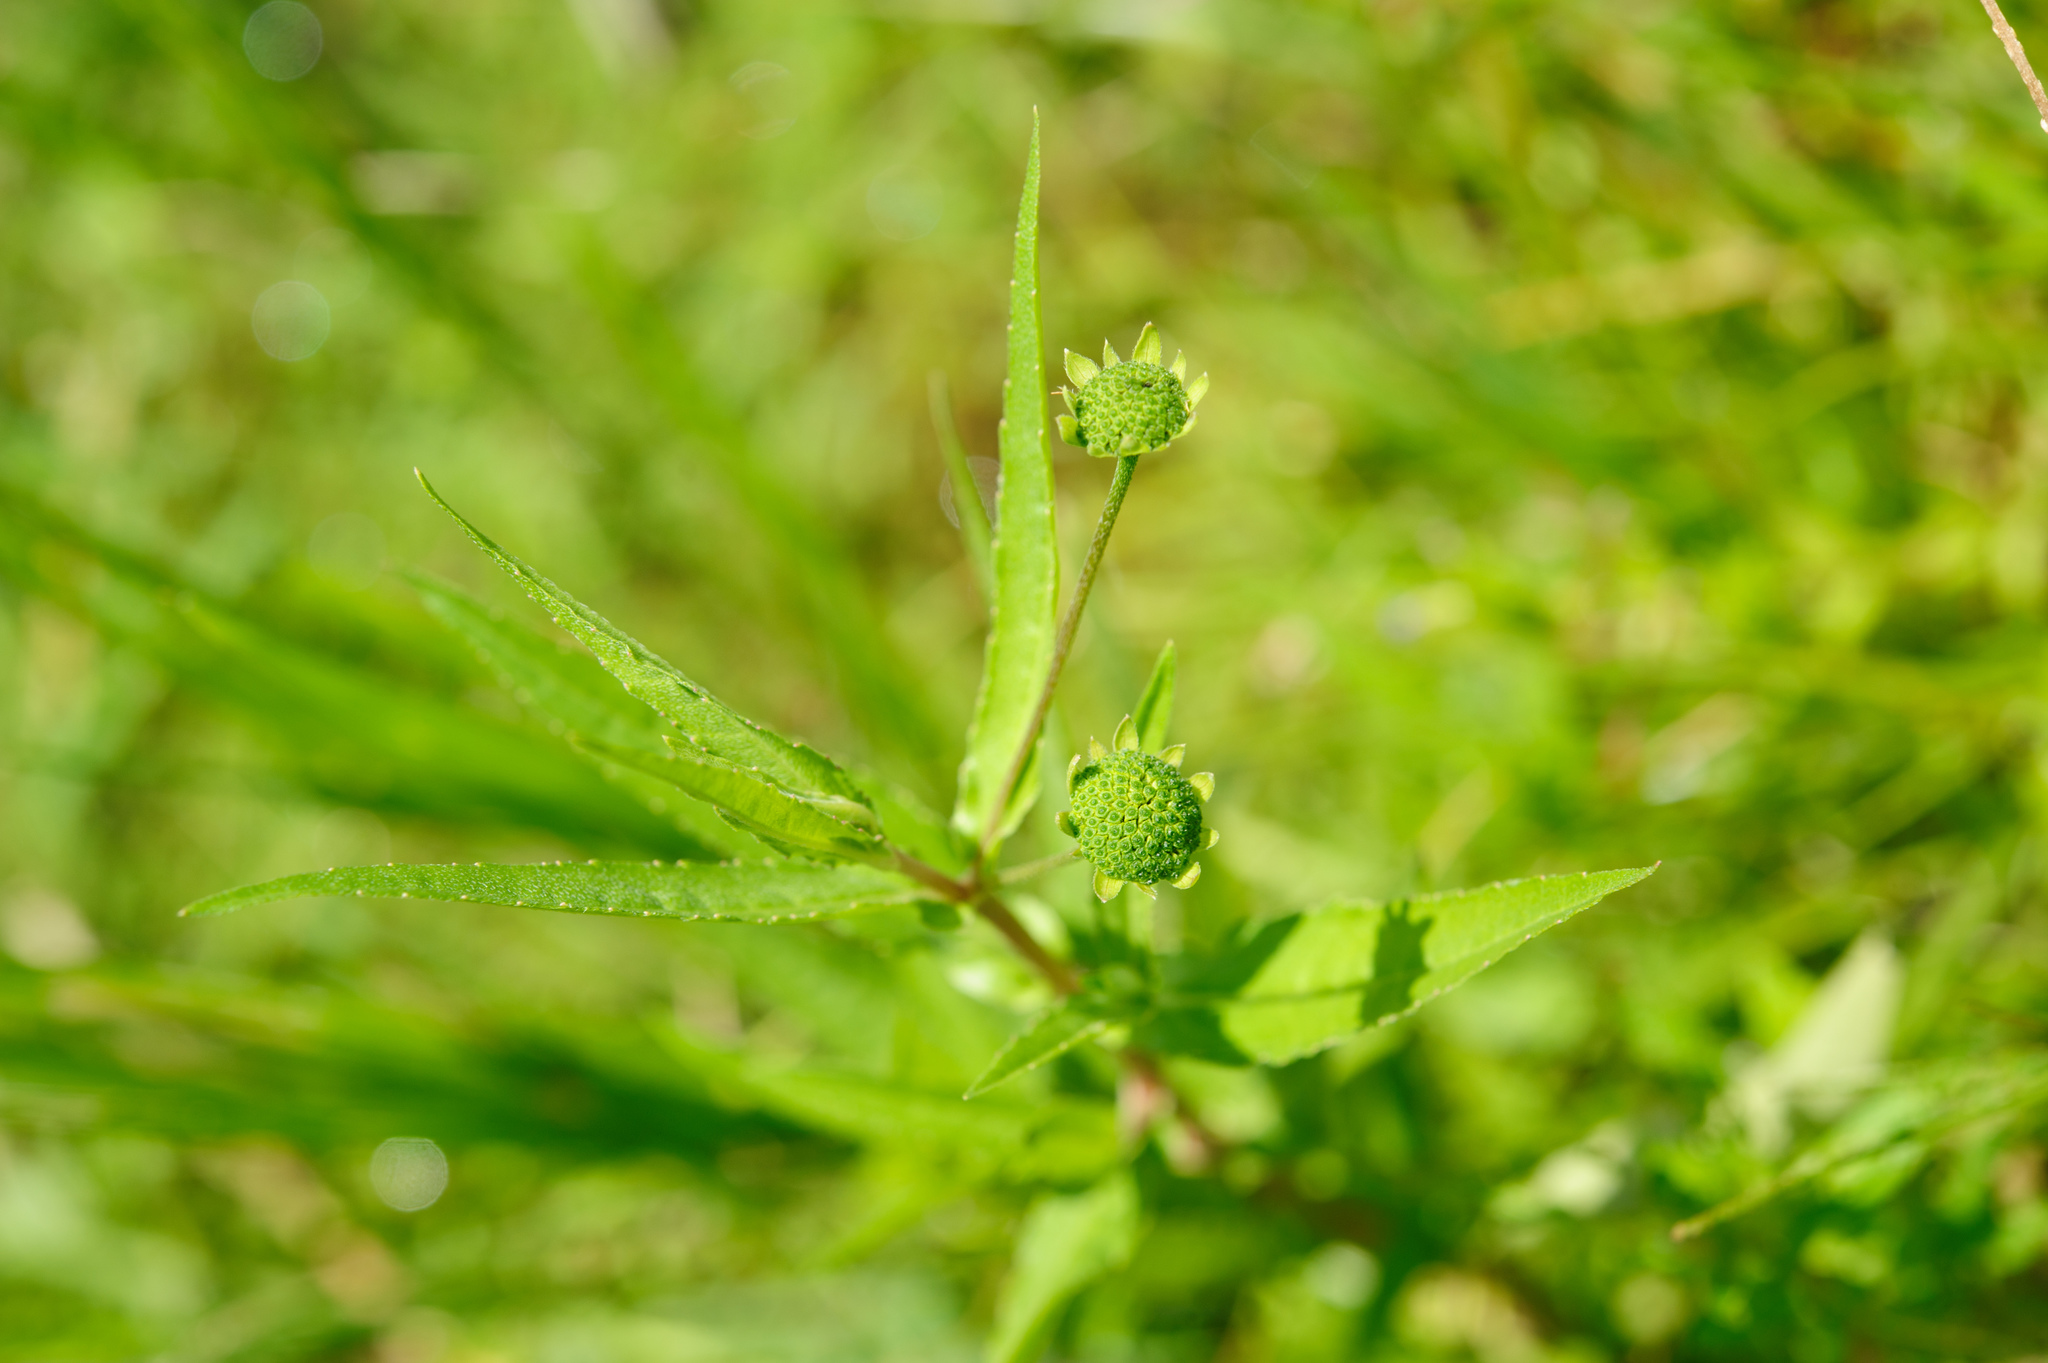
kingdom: Plantae
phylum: Tracheophyta
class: Magnoliopsida
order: Asterales
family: Asteraceae
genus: Eclipta
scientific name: Eclipta prostrata
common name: False daisy
